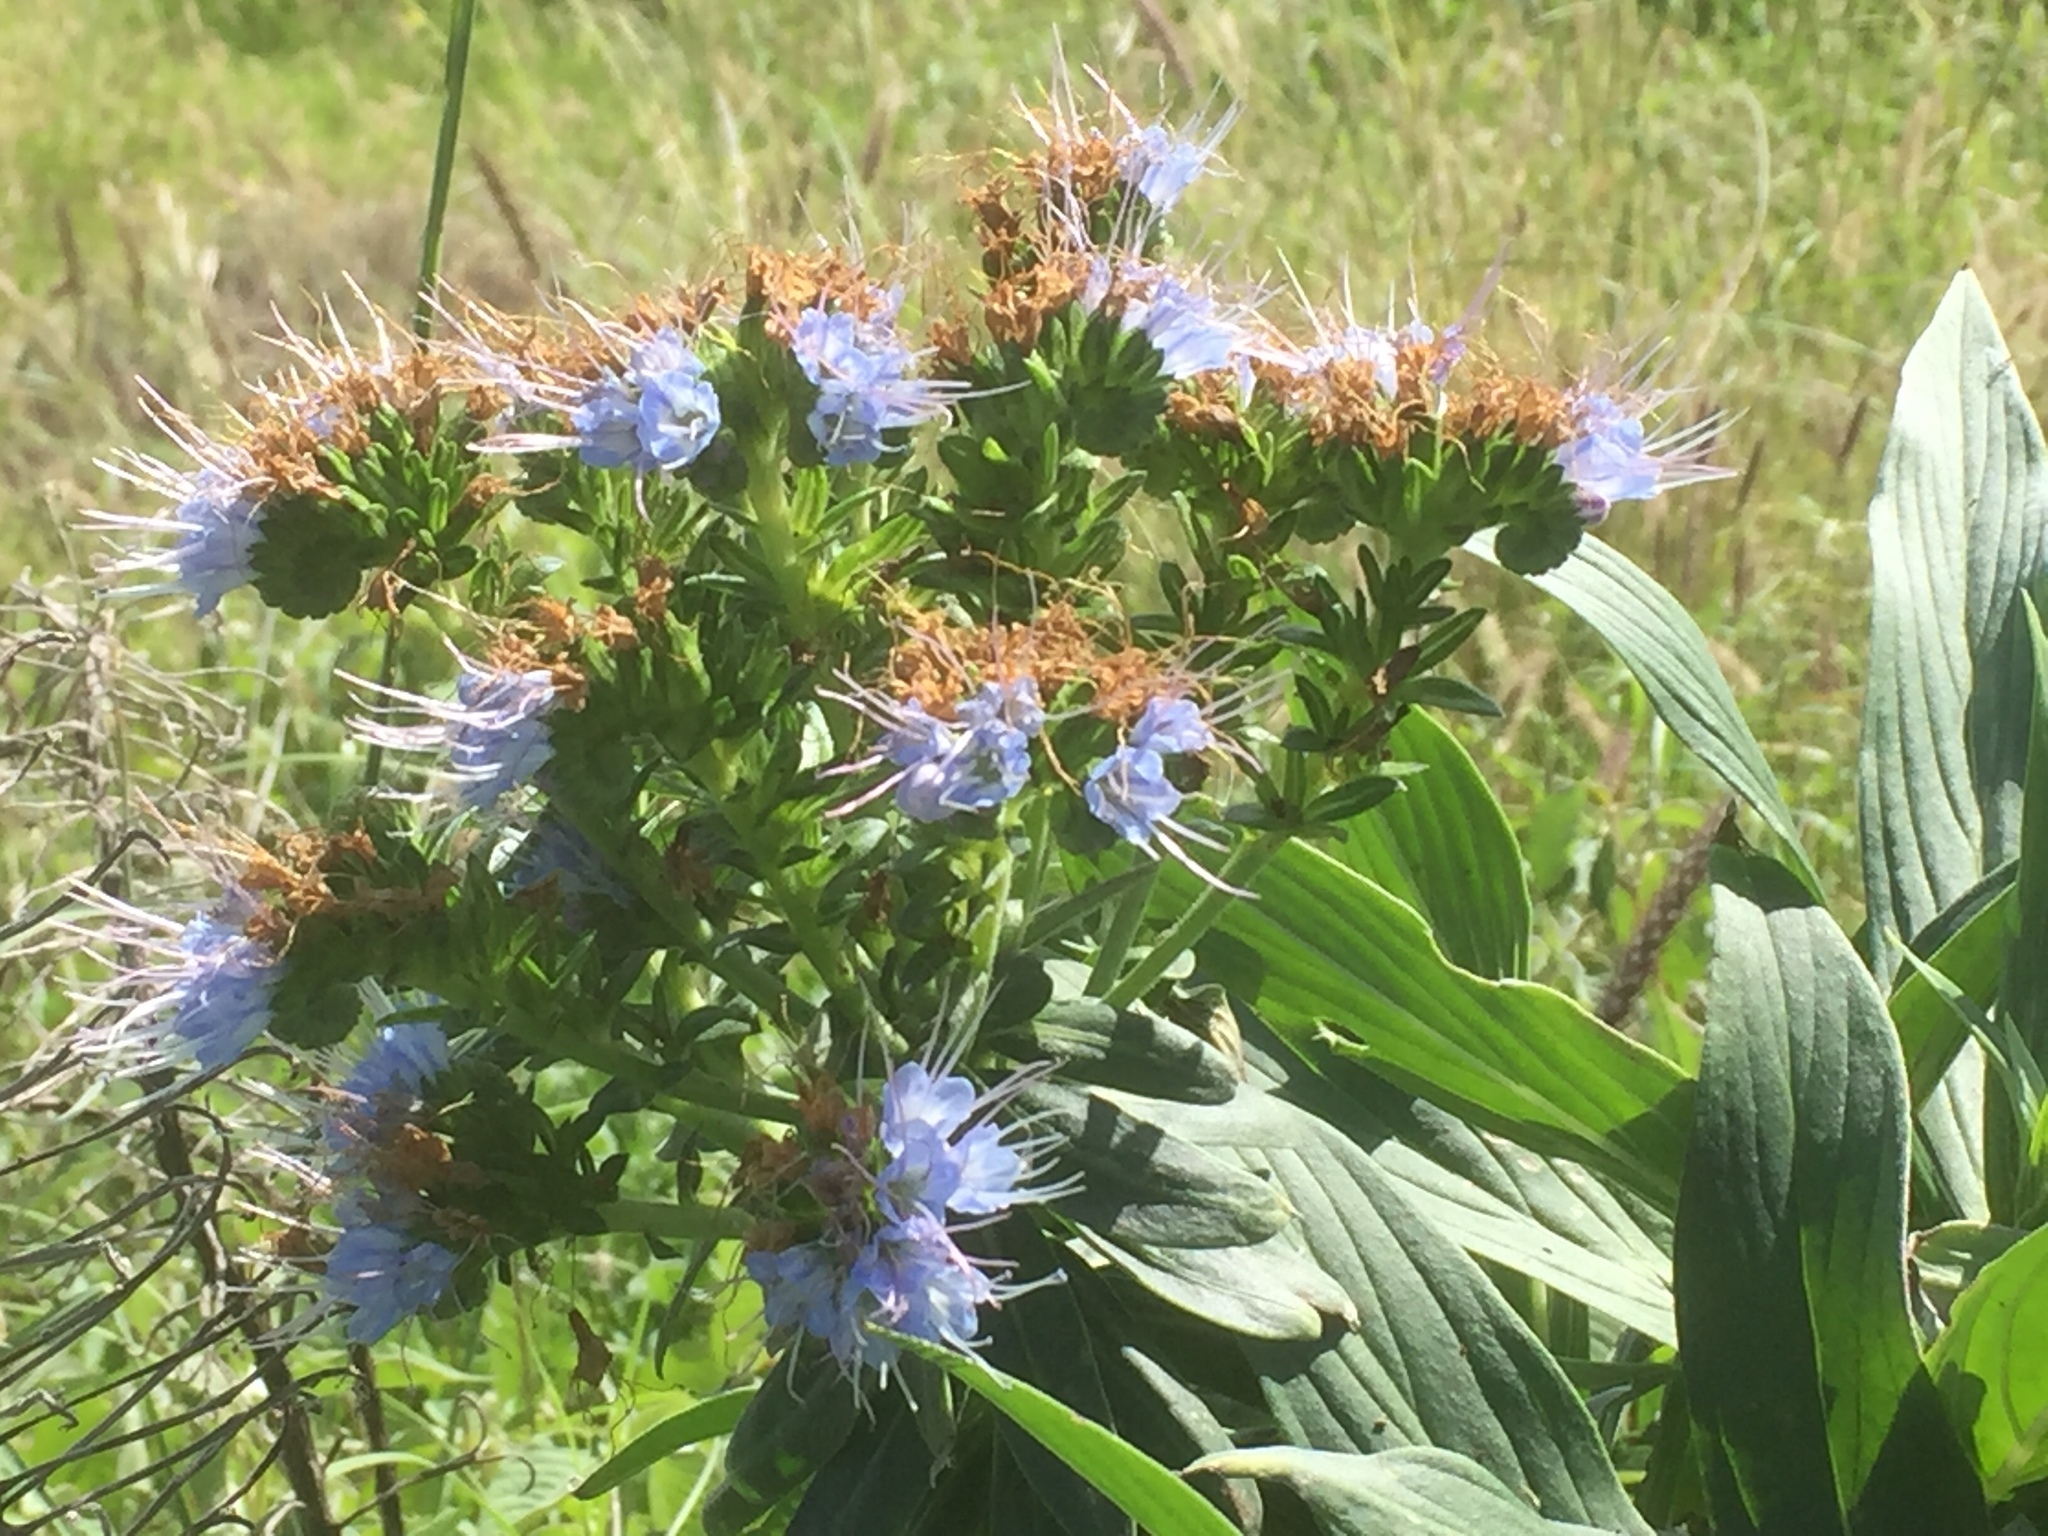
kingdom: Plantae
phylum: Tracheophyta
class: Magnoliopsida
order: Boraginales
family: Boraginaceae
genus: Echium
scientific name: Echium nervosum
